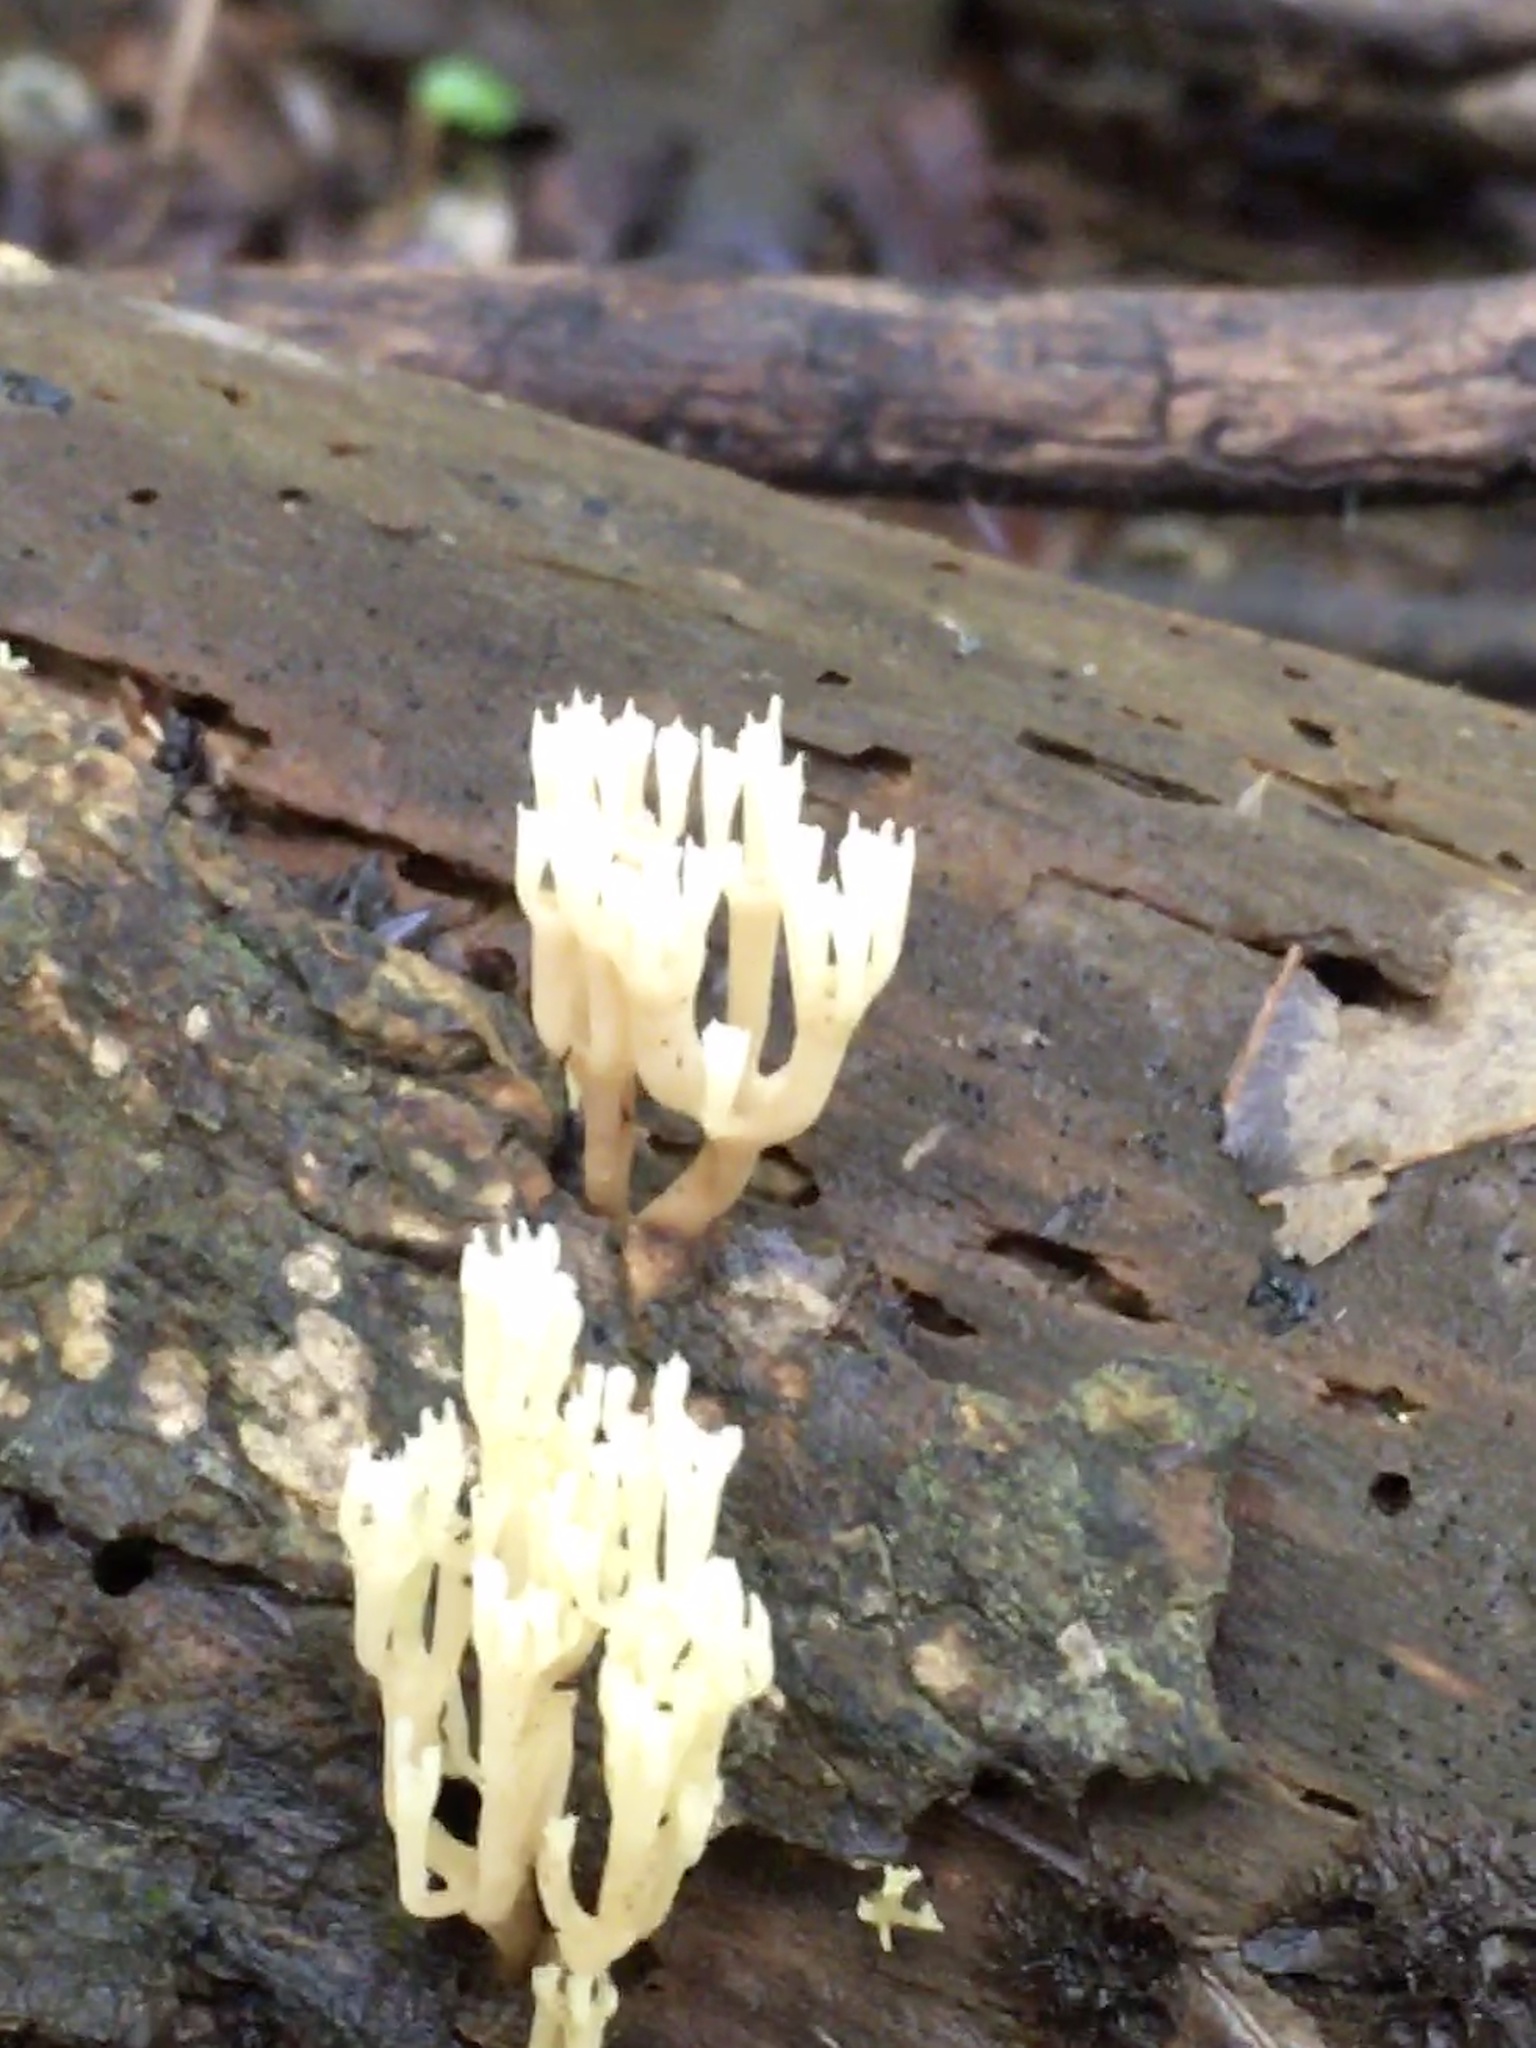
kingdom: Fungi
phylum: Basidiomycota
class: Agaricomycetes
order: Russulales
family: Auriscalpiaceae
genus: Artomyces
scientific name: Artomyces pyxidatus
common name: Crown-tipped coral fungus
